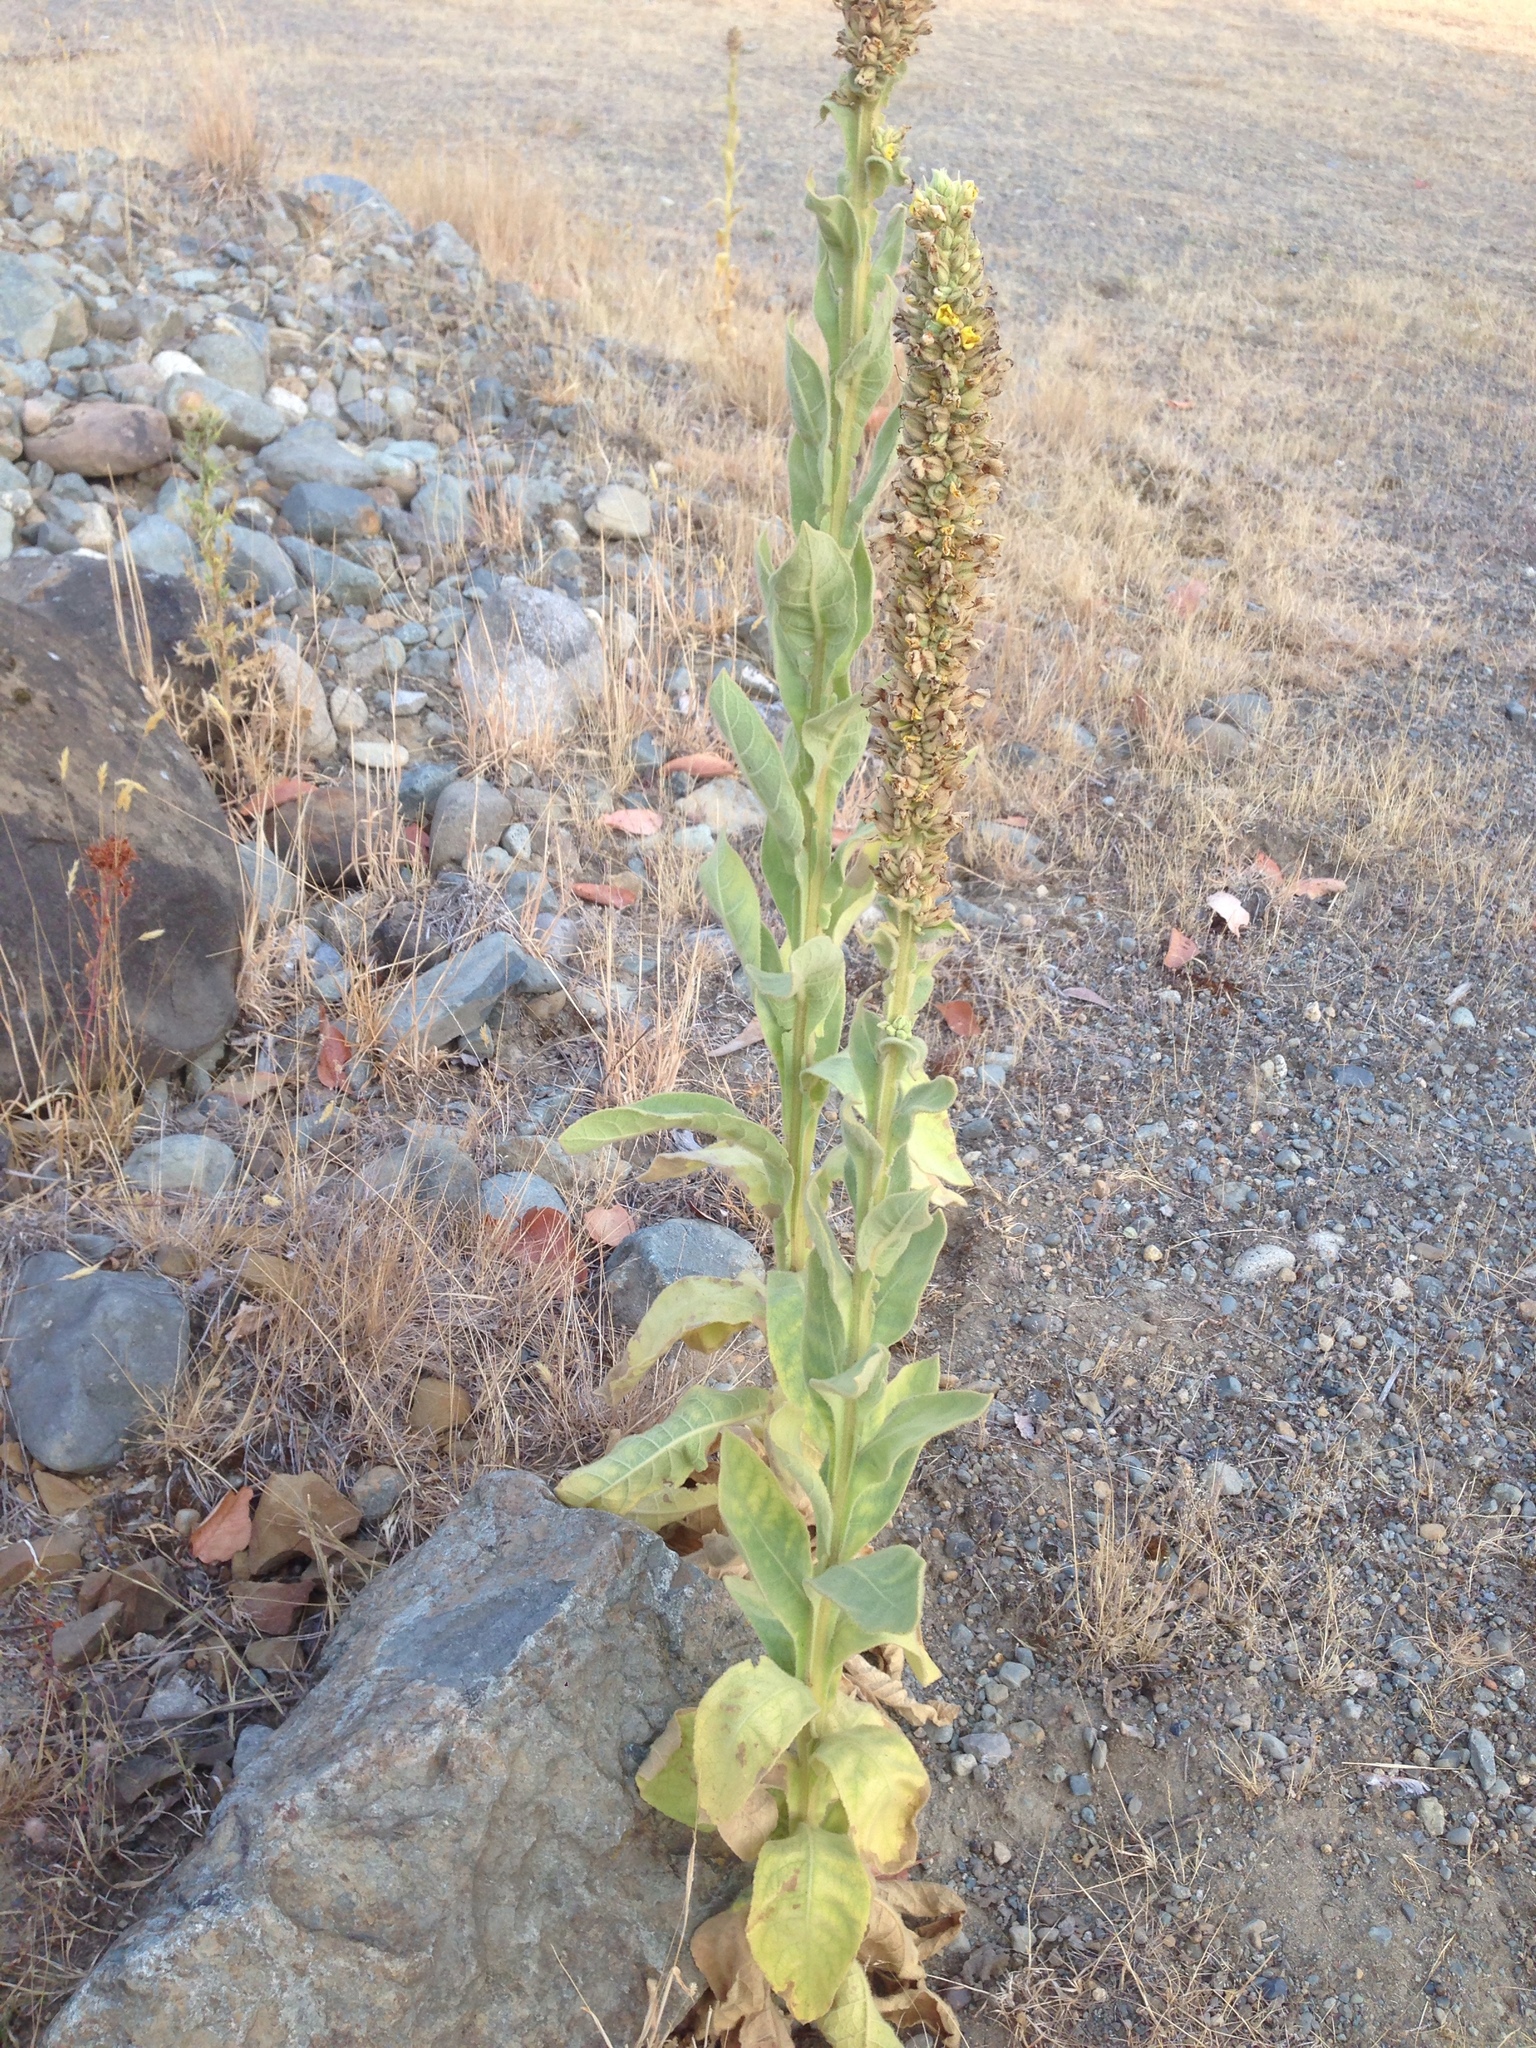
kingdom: Plantae
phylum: Tracheophyta
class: Magnoliopsida
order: Lamiales
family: Scrophulariaceae
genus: Verbascum
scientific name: Verbascum thapsus
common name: Common mullein
